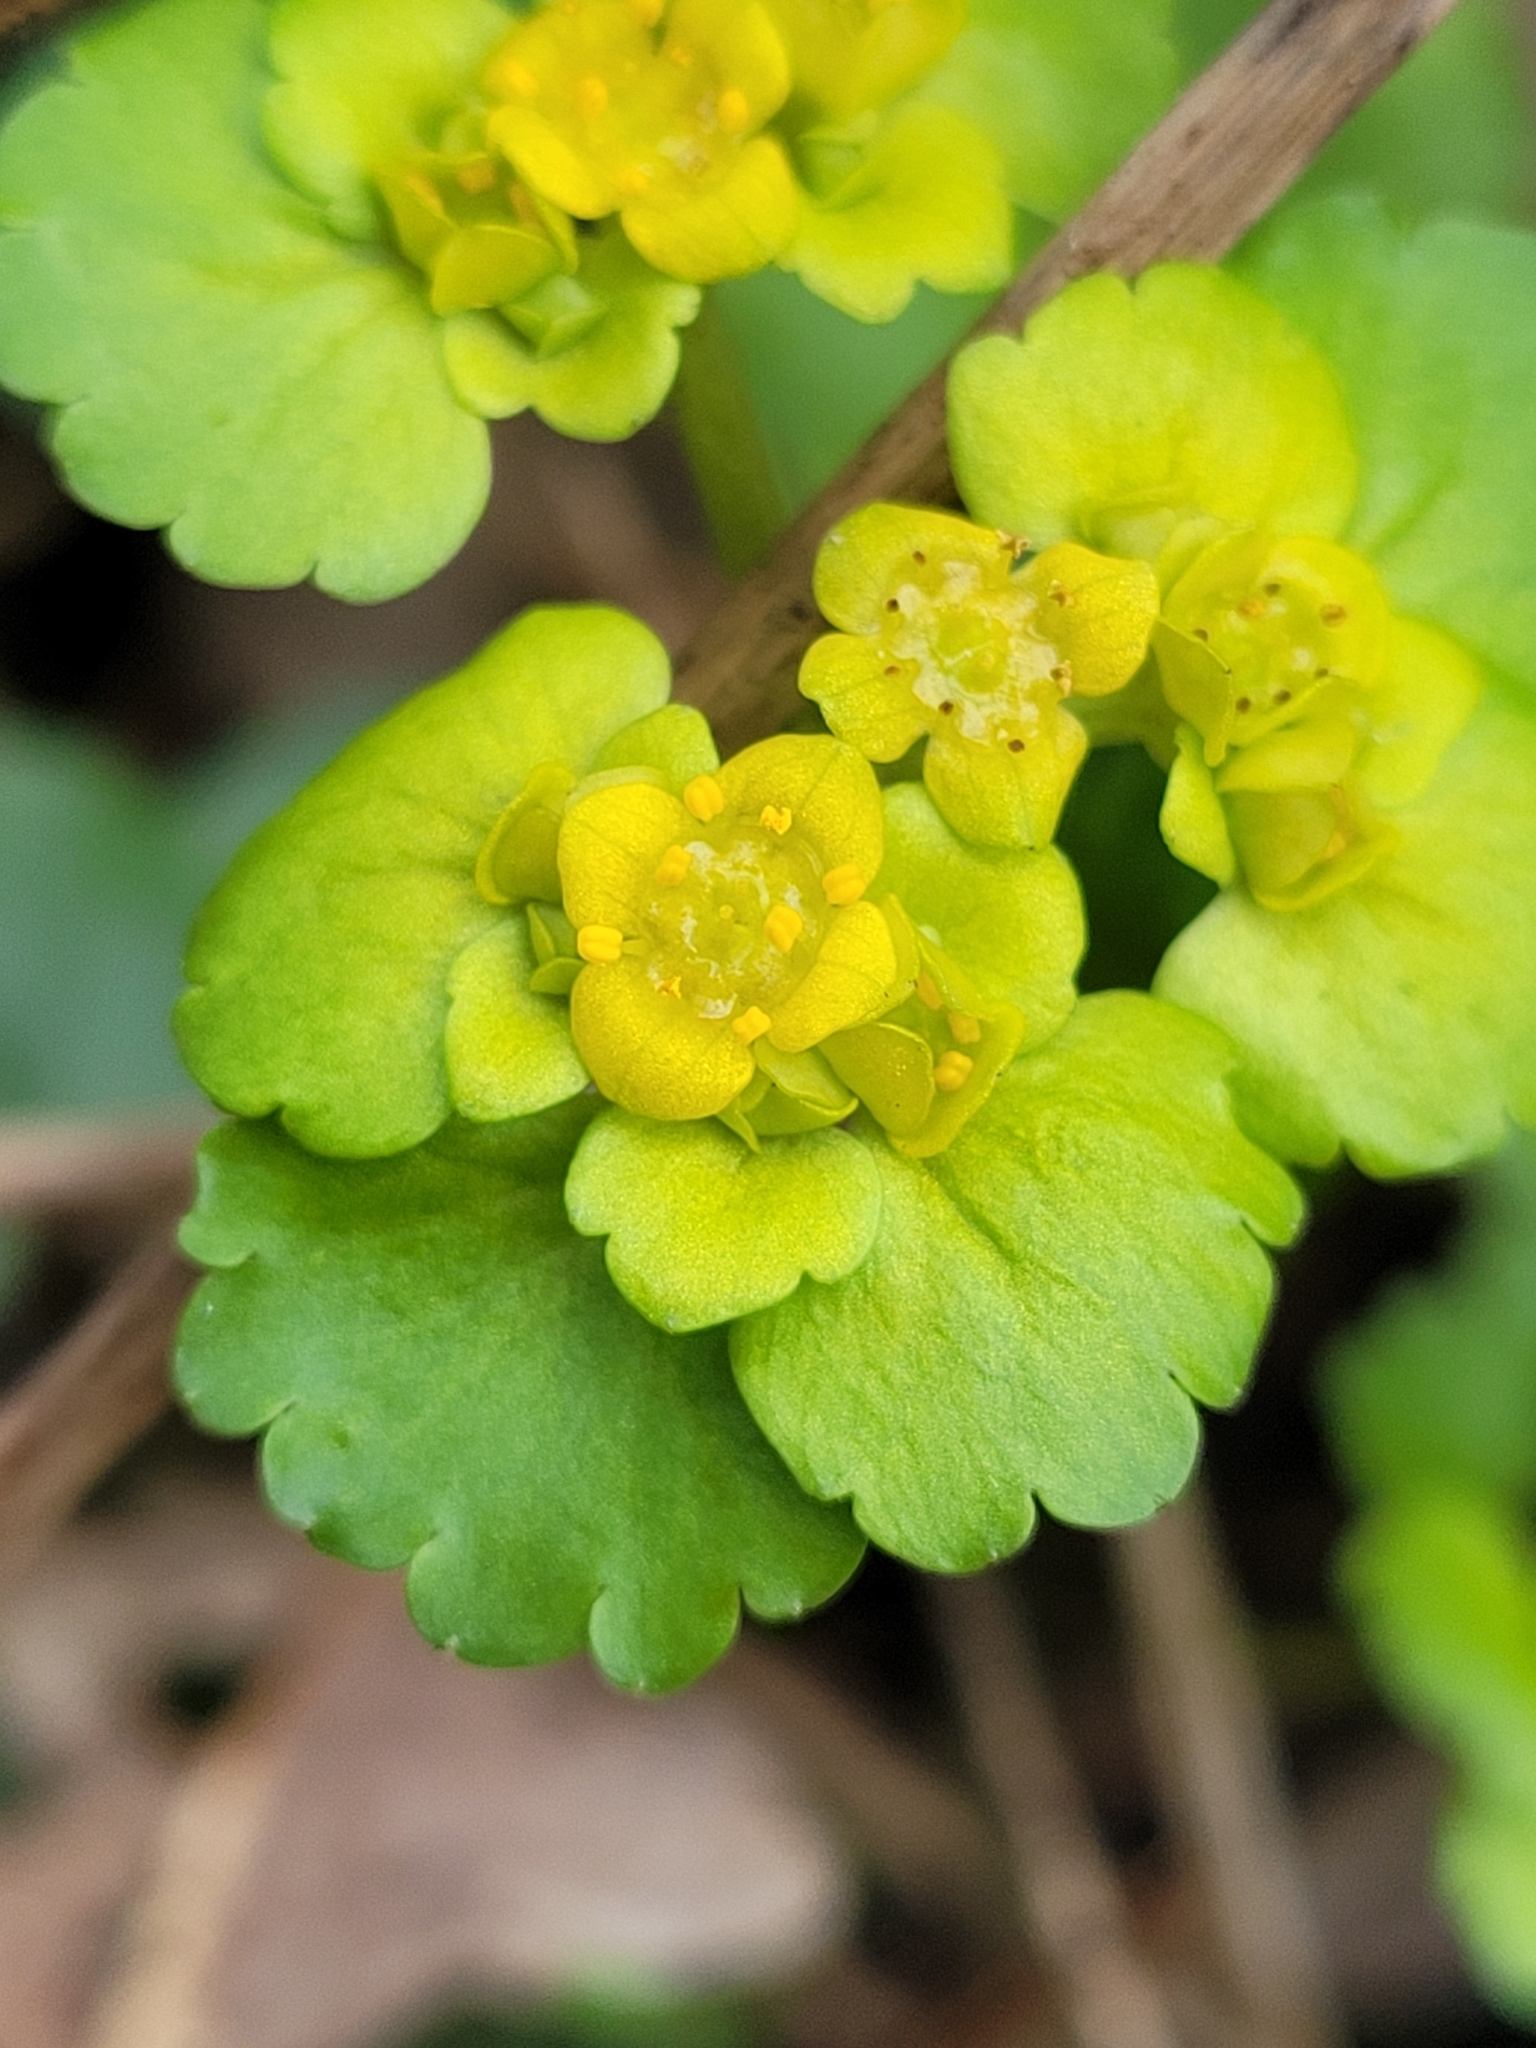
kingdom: Plantae
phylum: Tracheophyta
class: Magnoliopsida
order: Saxifragales
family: Saxifragaceae
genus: Chrysosplenium
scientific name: Chrysosplenium alternifolium
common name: Alternate-leaved golden-saxifrage
